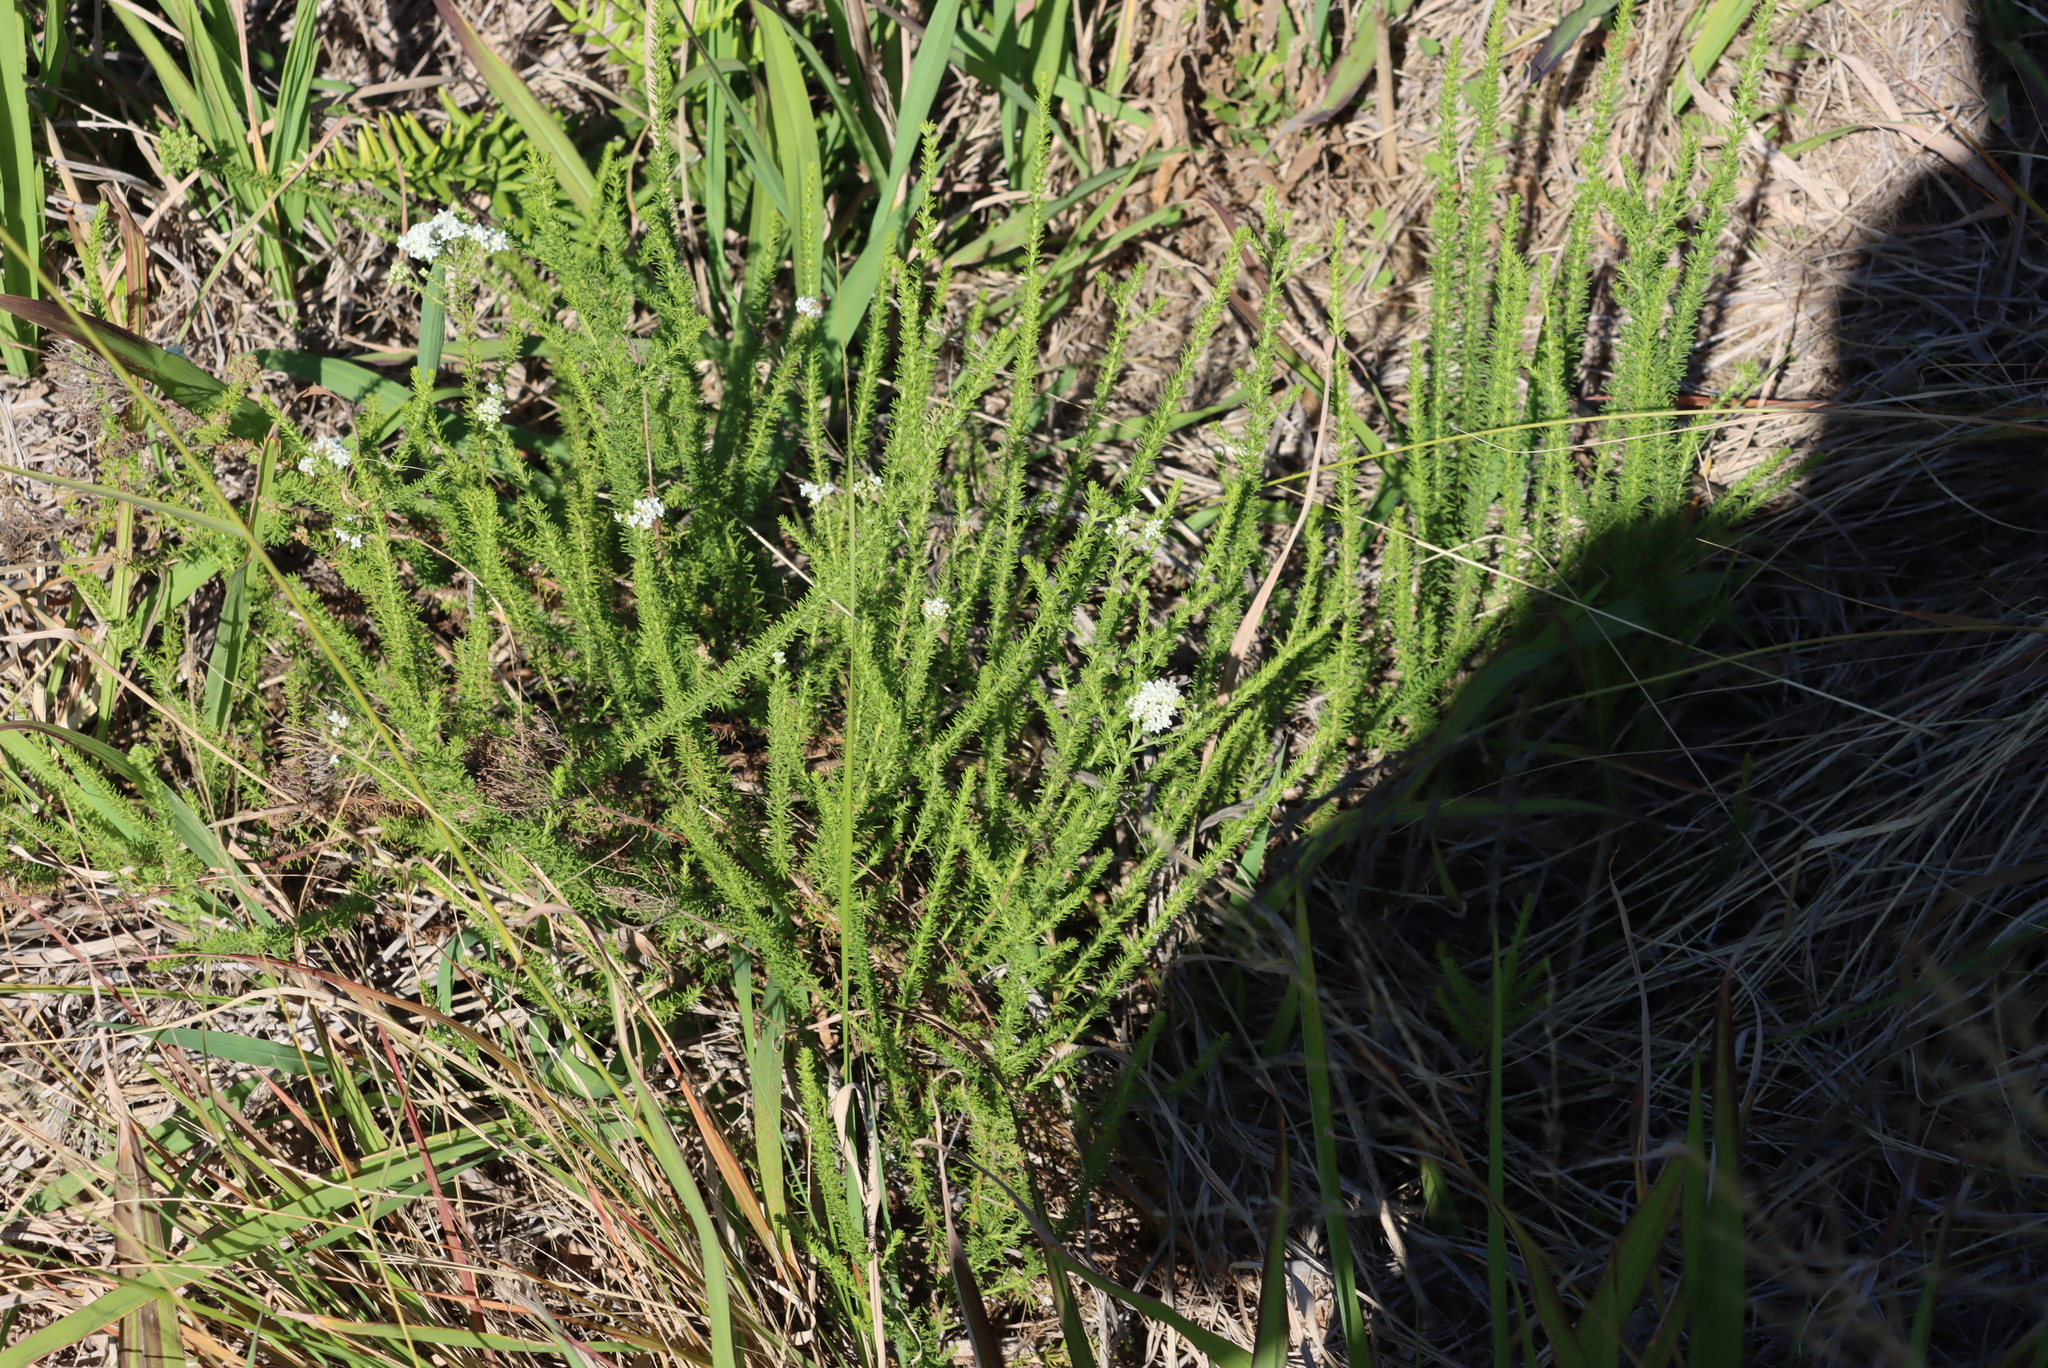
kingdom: Plantae
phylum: Tracheophyta
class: Magnoliopsida
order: Lamiales
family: Scrophulariaceae
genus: Selago
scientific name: Selago corymbosa
